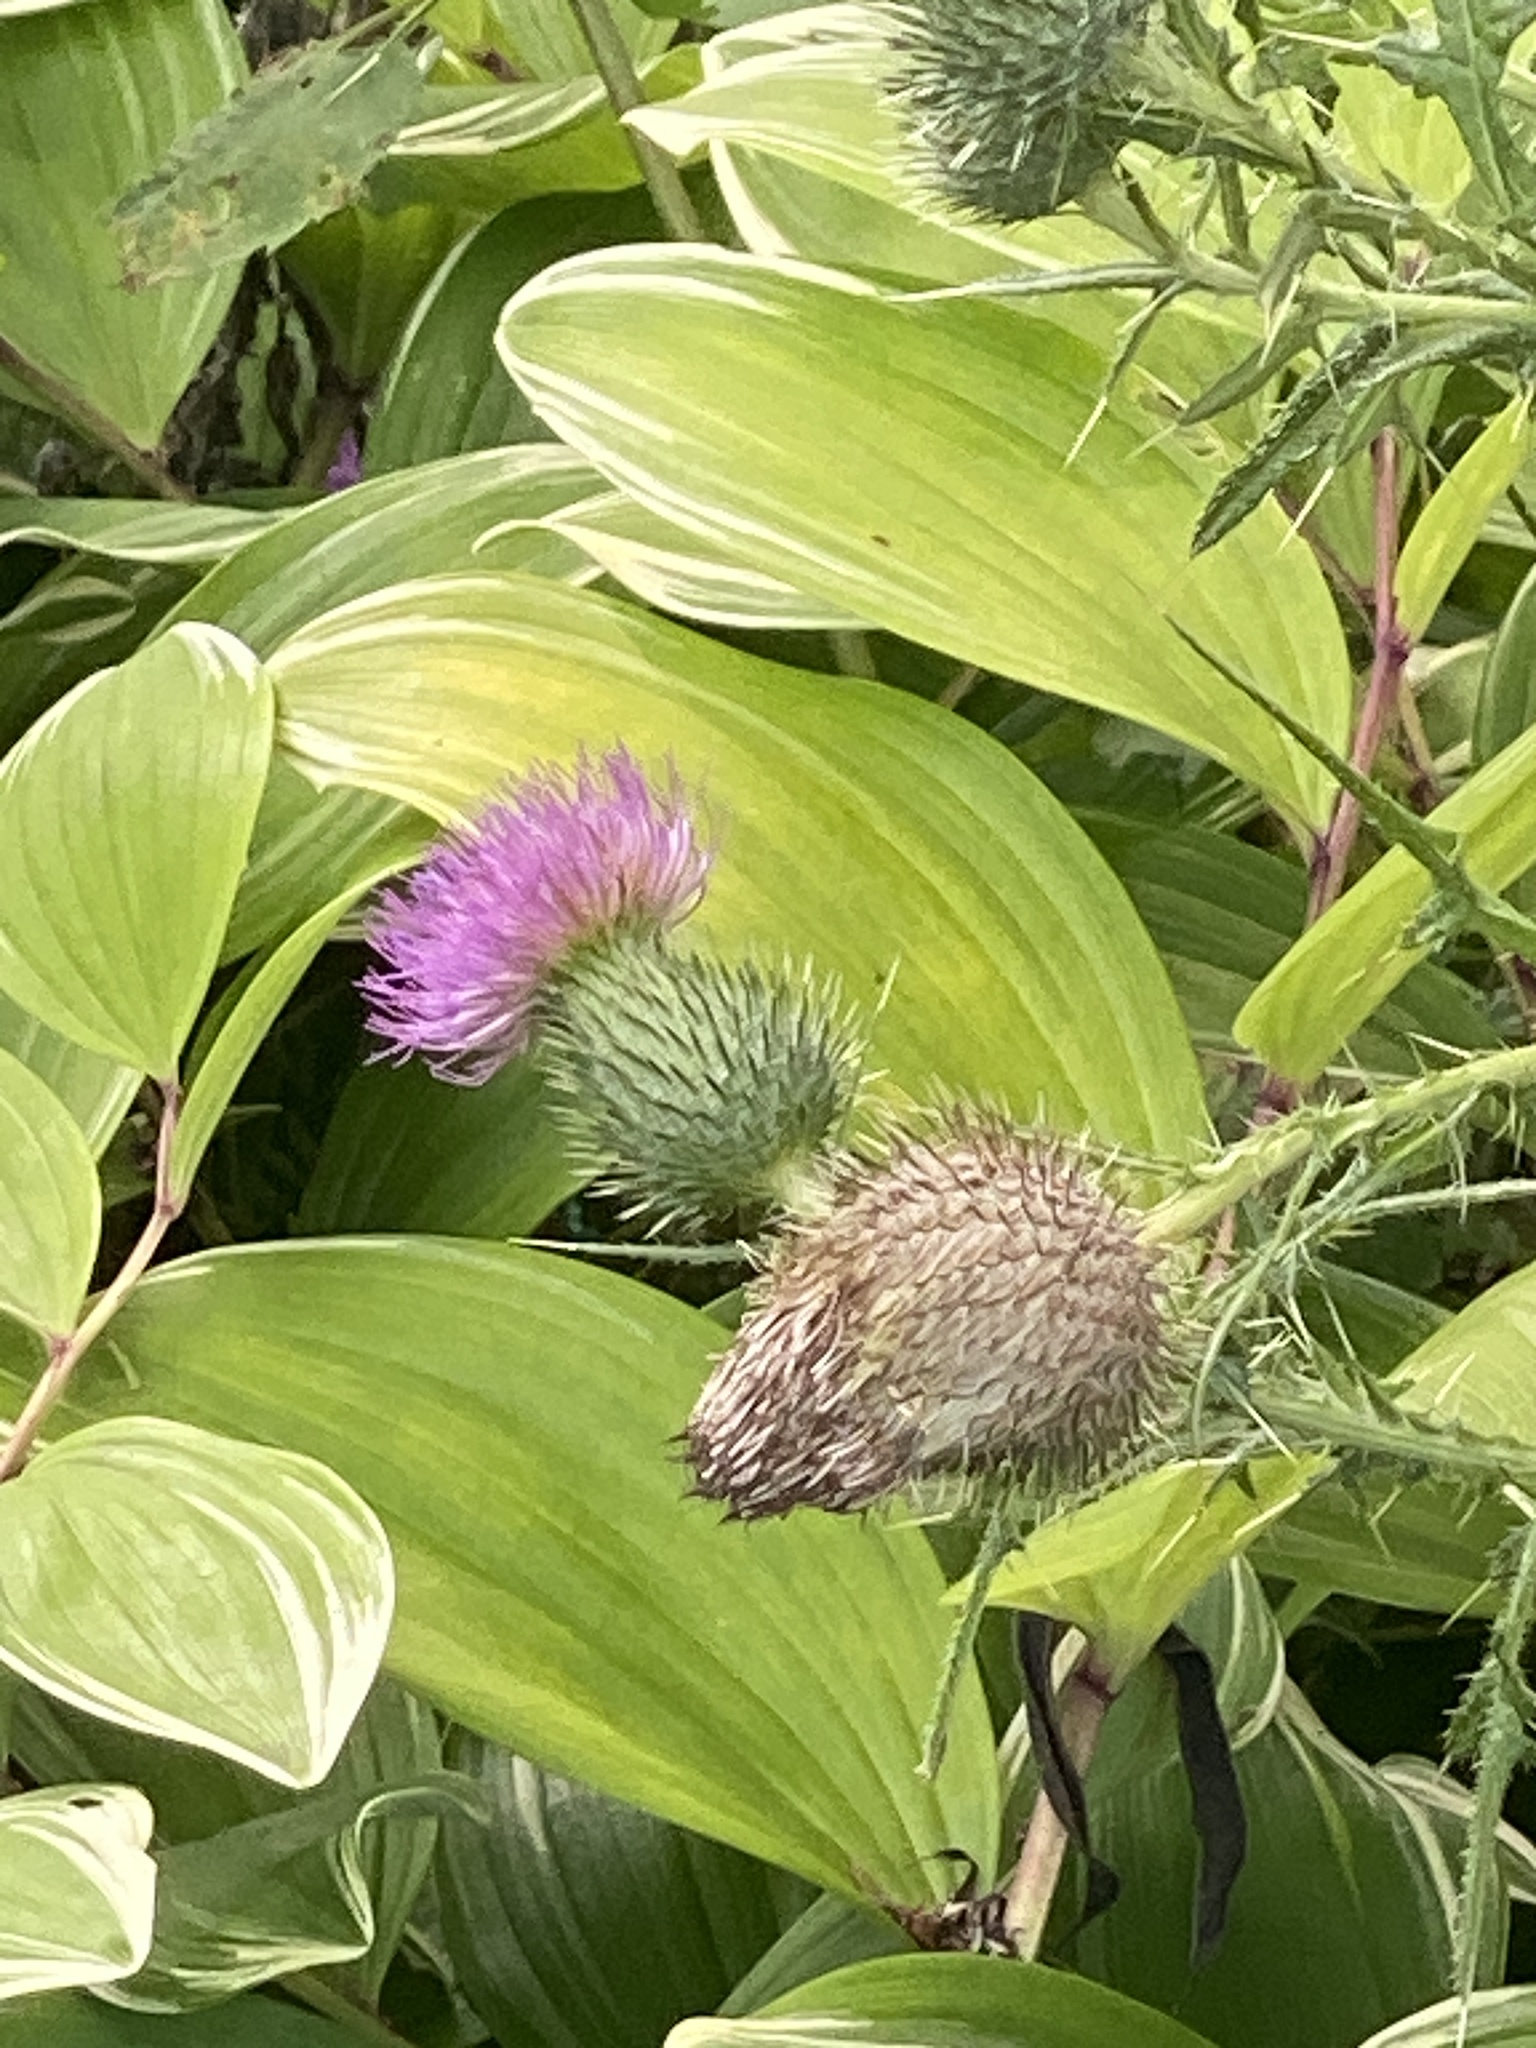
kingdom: Plantae
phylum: Tracheophyta
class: Magnoliopsida
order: Asterales
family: Asteraceae
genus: Cirsium
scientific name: Cirsium vulgare
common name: Bull thistle
